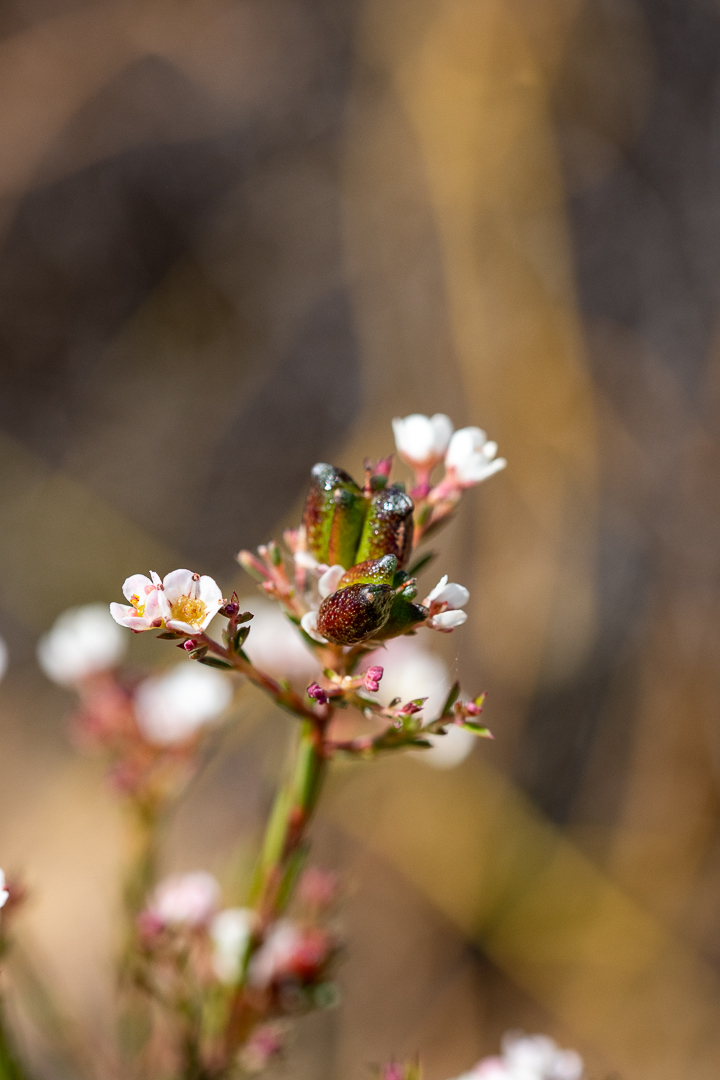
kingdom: Plantae
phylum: Tracheophyta
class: Magnoliopsida
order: Sapindales
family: Rutaceae
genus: Diosma
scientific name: Diosma hirsuta
